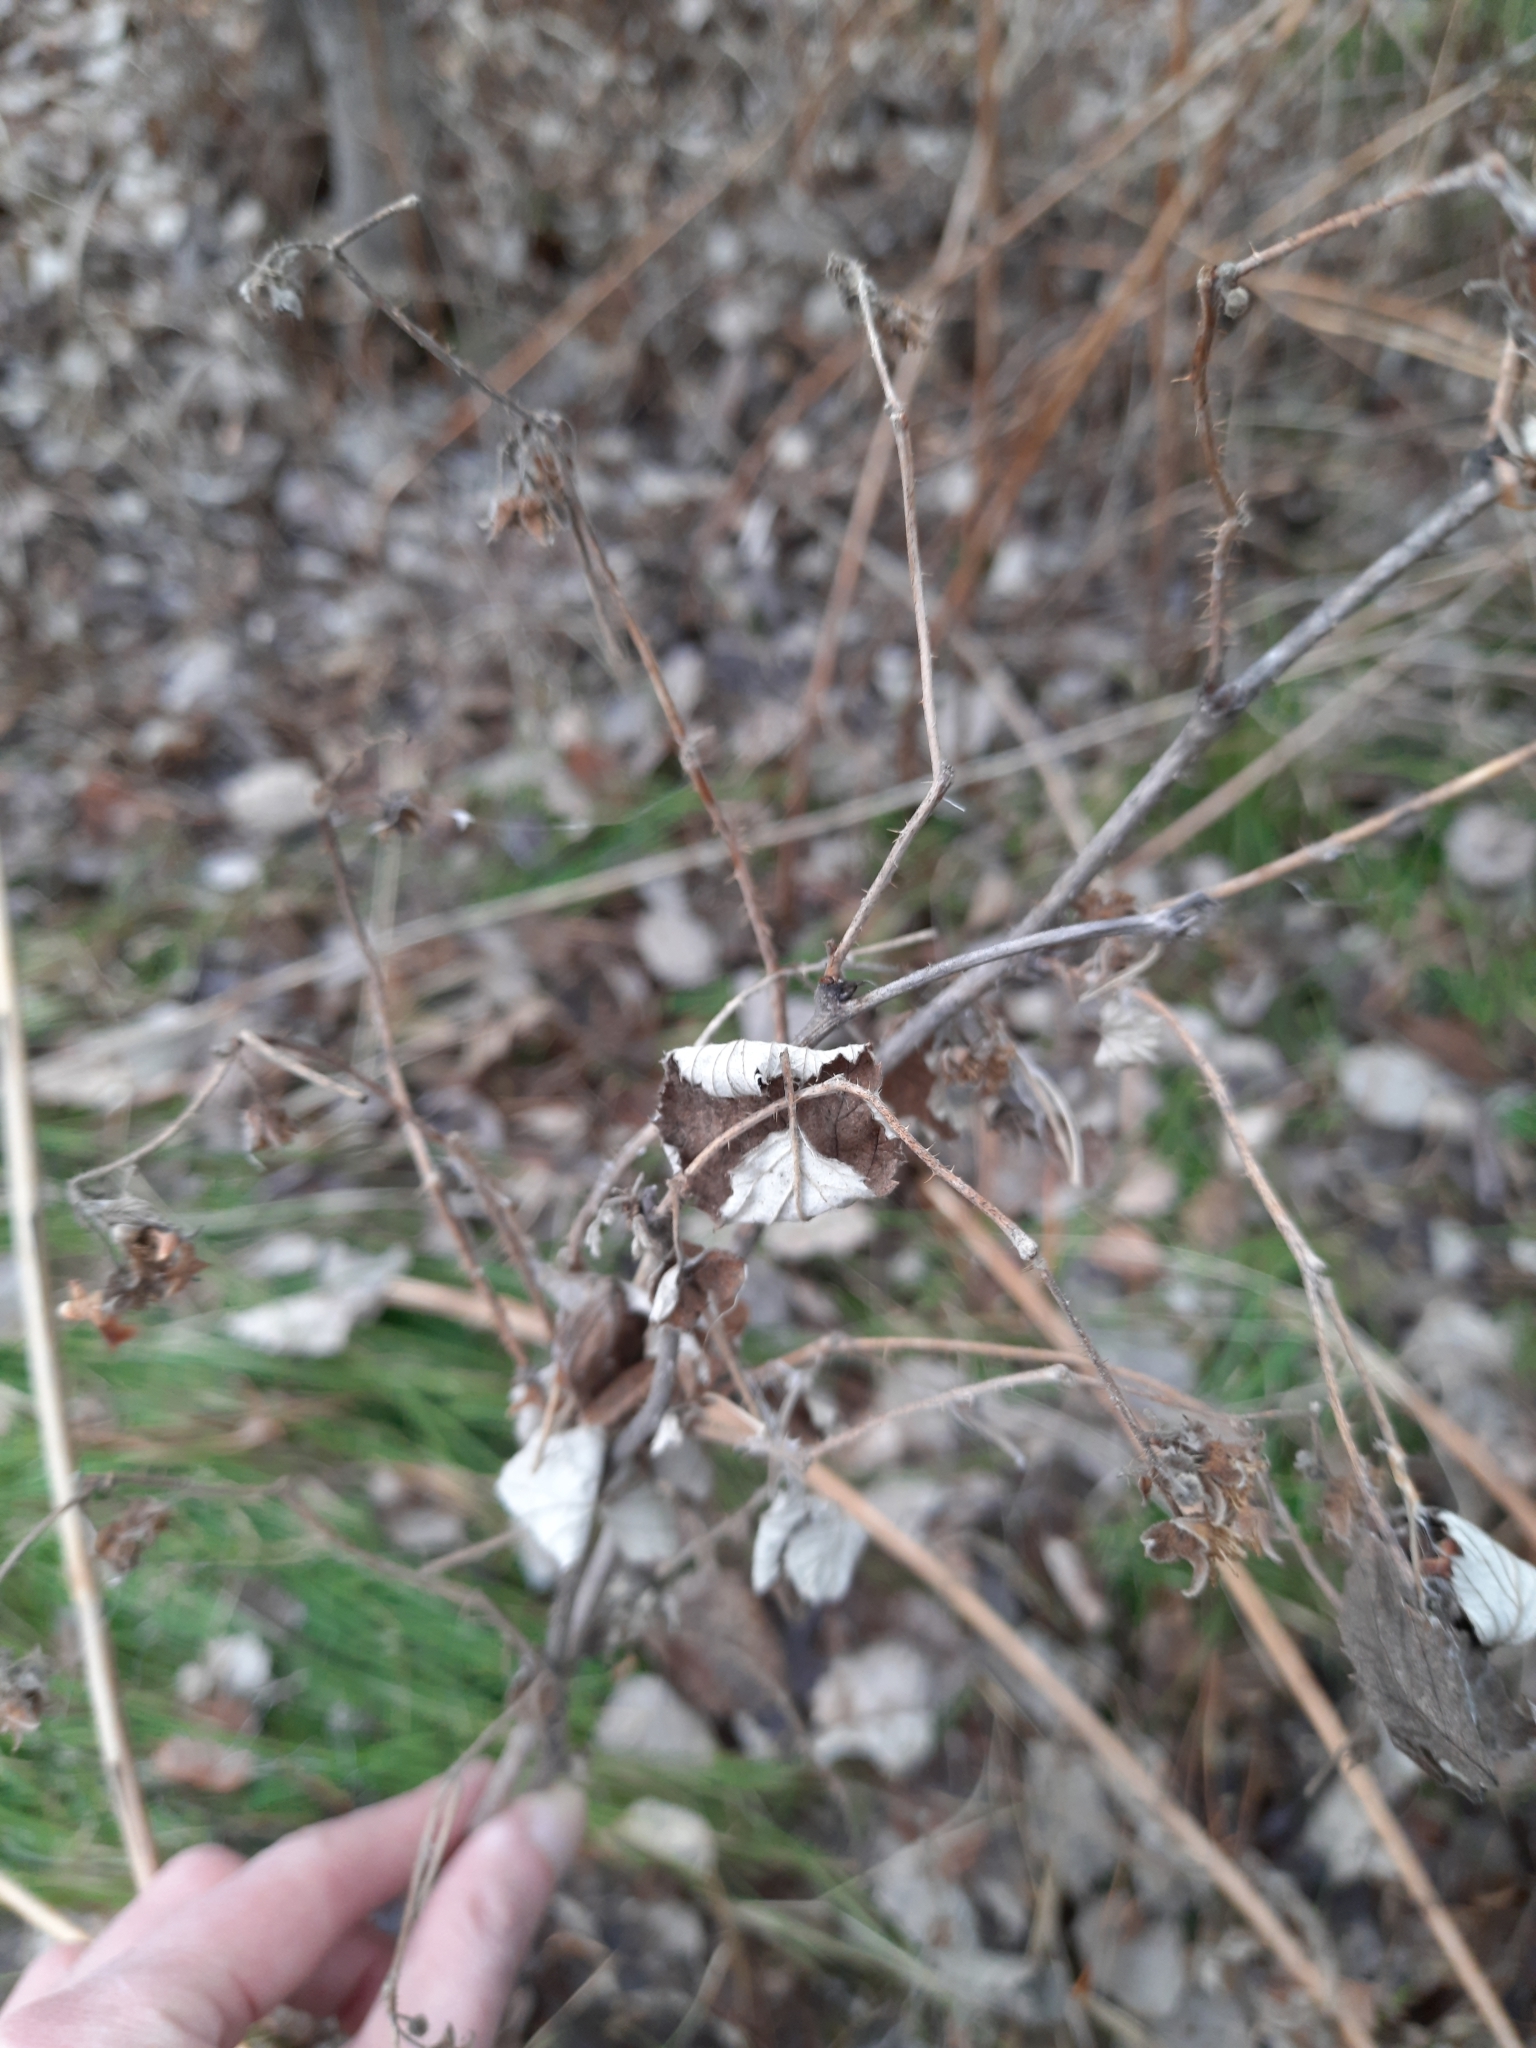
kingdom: Plantae
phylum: Tracheophyta
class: Magnoliopsida
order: Rosales
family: Rosaceae
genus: Rubus
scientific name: Rubus idaeus
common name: Raspberry
